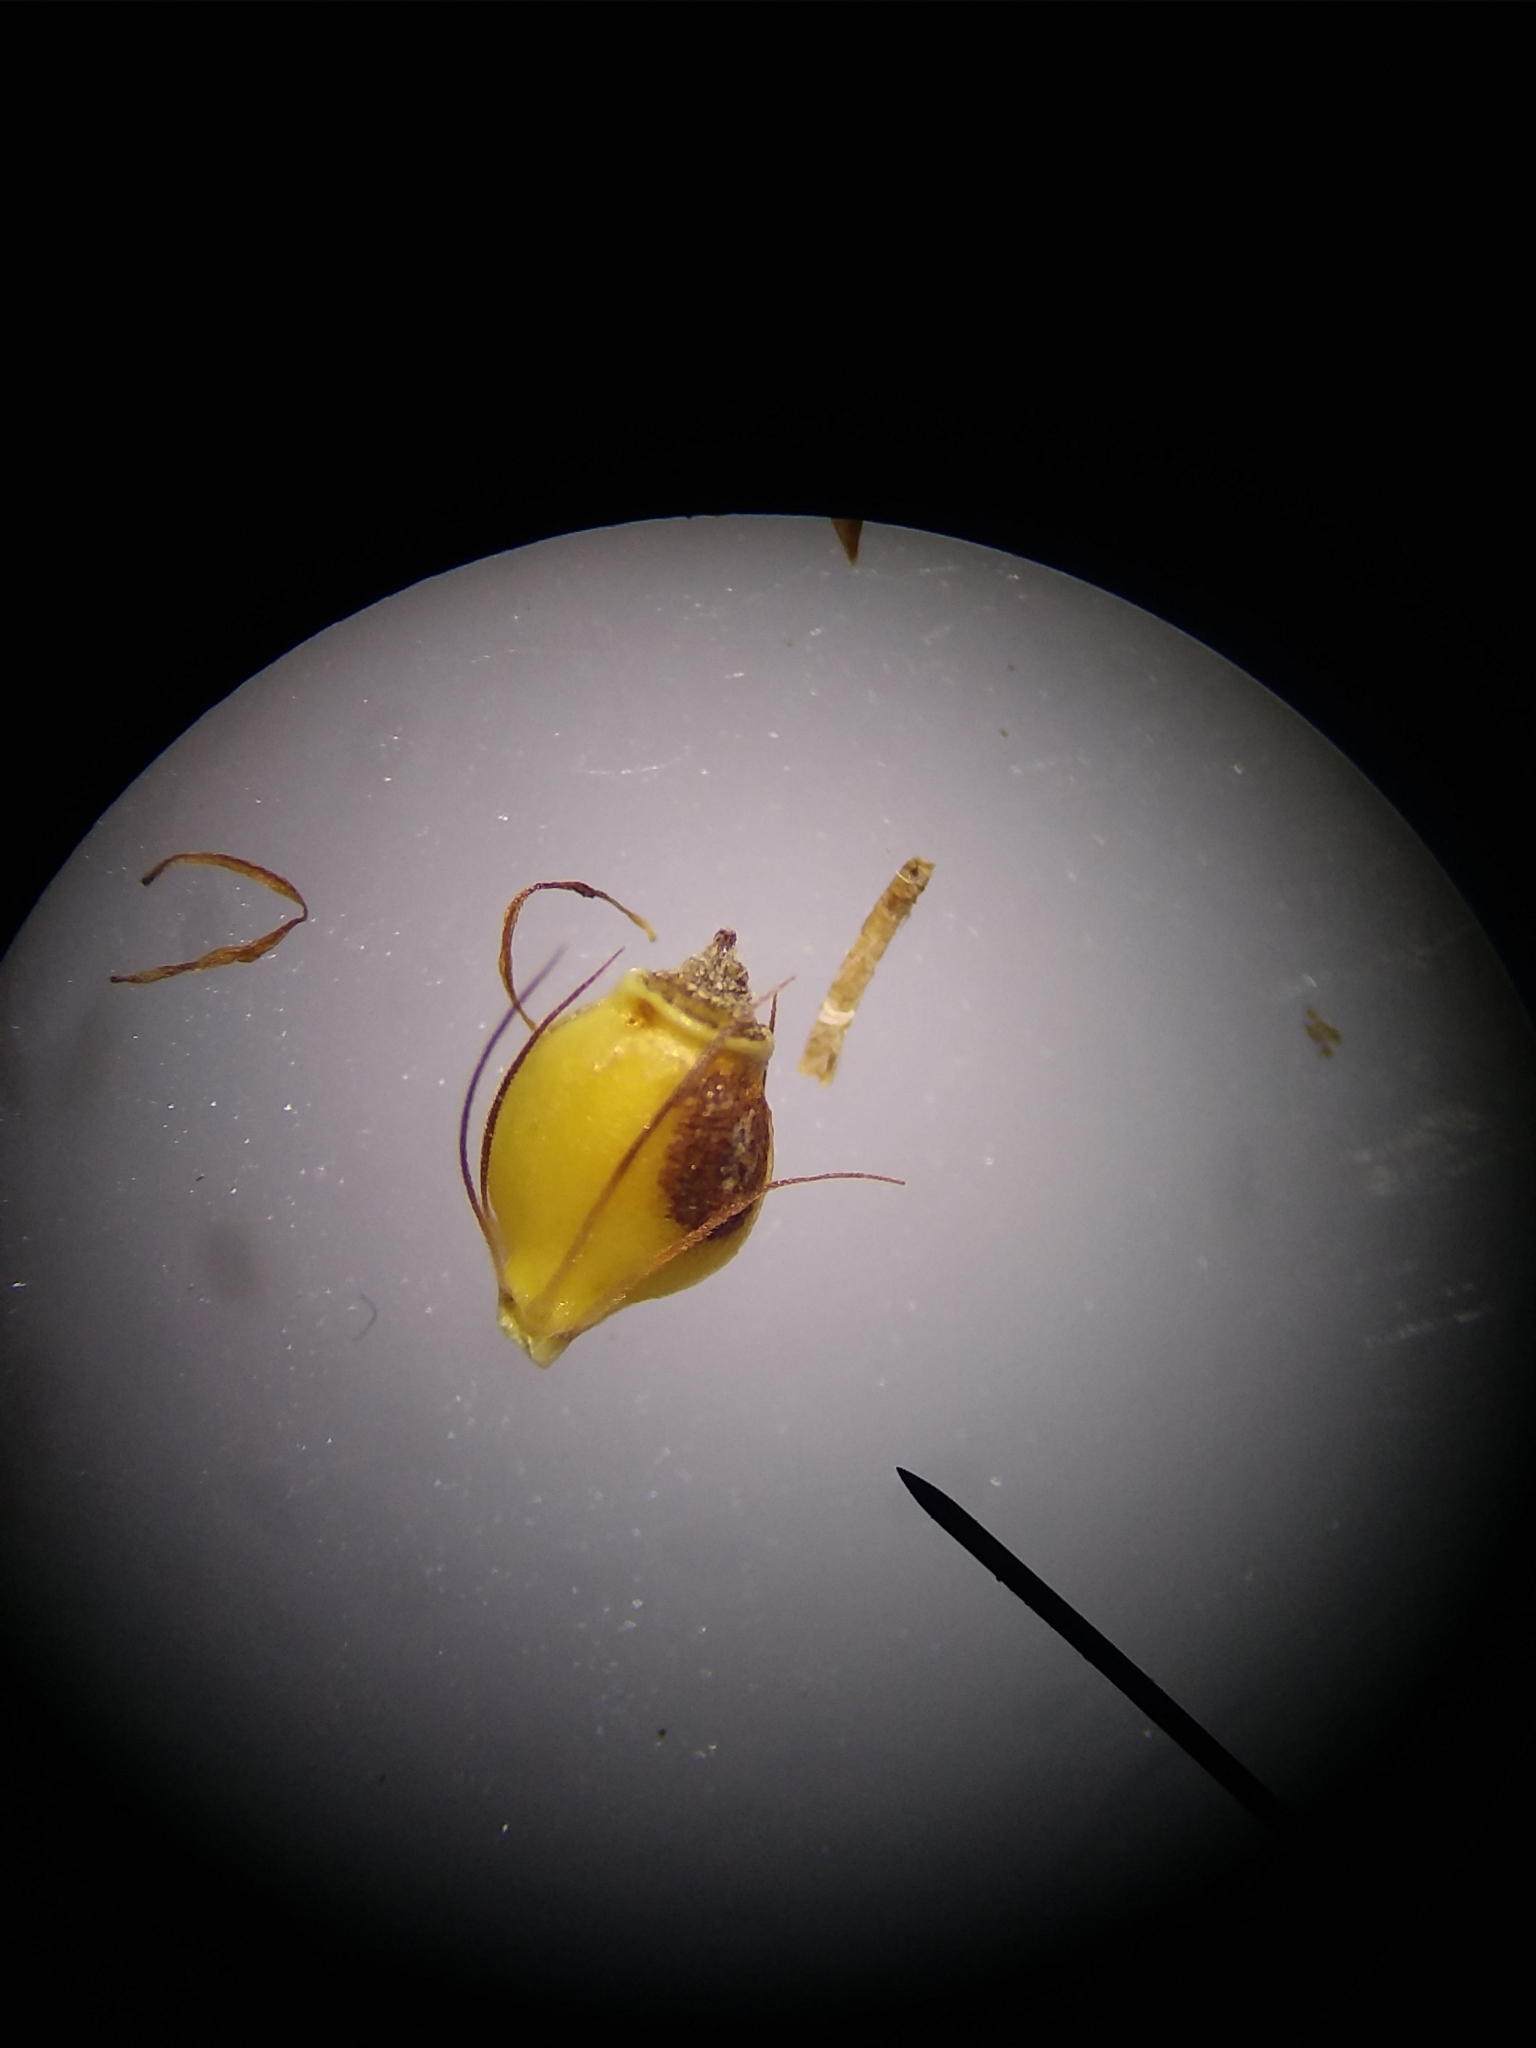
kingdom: Plantae
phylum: Tracheophyta
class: Liliopsida
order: Poales
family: Cyperaceae
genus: Rhynchospora
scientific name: Rhynchospora grayi
